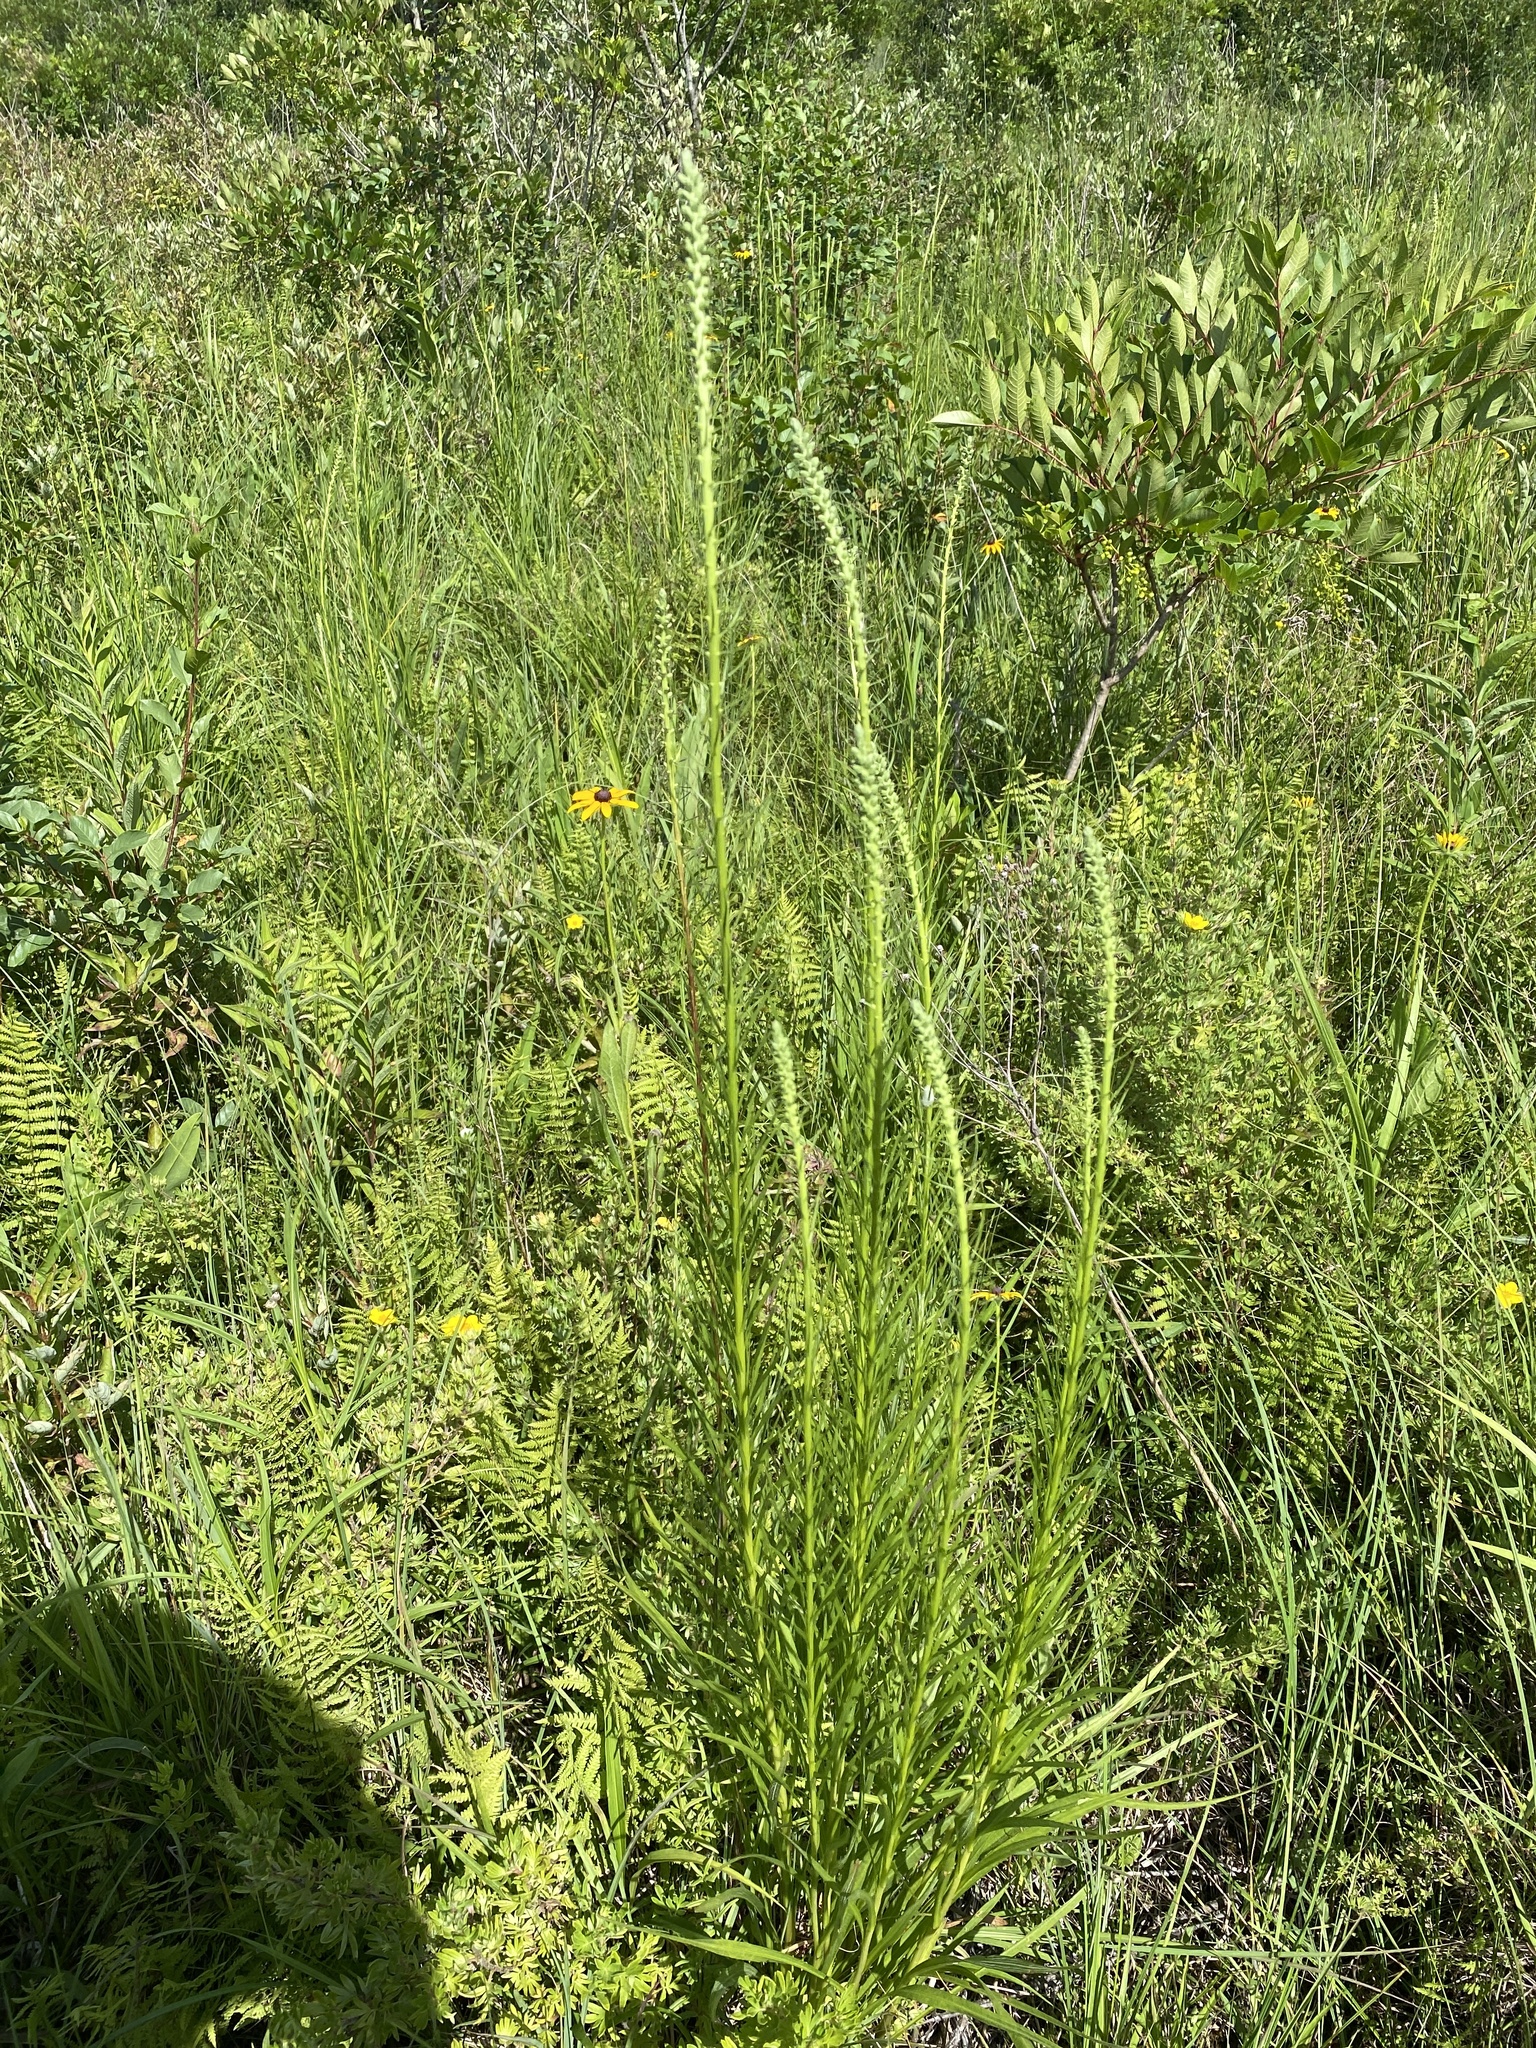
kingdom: Plantae
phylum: Tracheophyta
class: Magnoliopsida
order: Asterales
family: Asteraceae
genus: Liatris
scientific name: Liatris spicata
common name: Florist gayfeather
